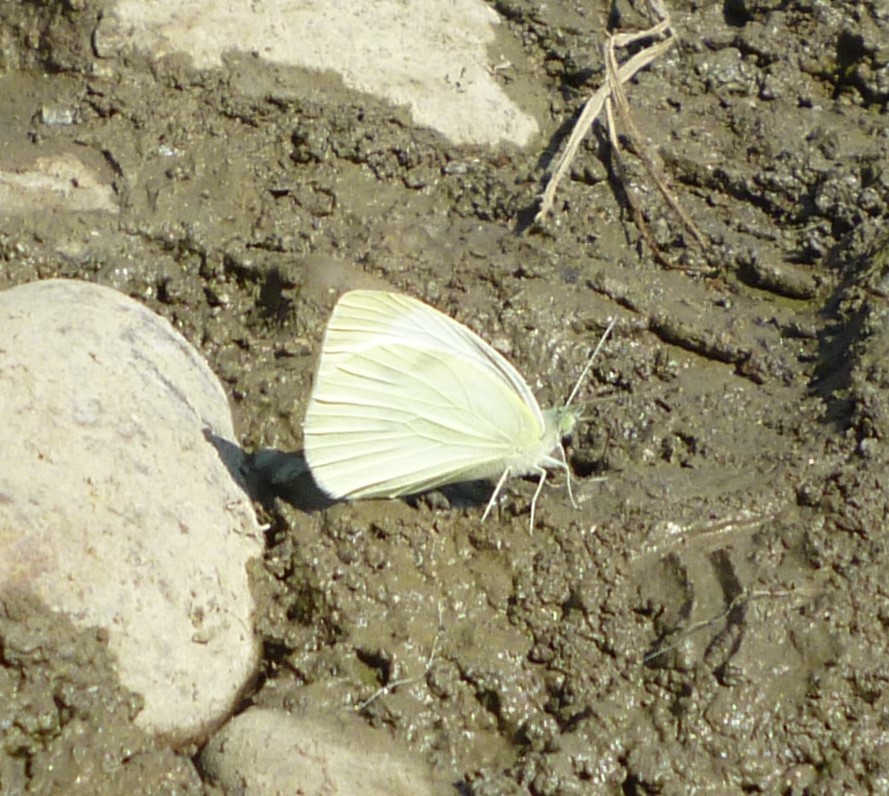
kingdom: Animalia
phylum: Arthropoda
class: Insecta
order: Lepidoptera
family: Pieridae
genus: Pieris
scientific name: Pieris rapae
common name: Small white
